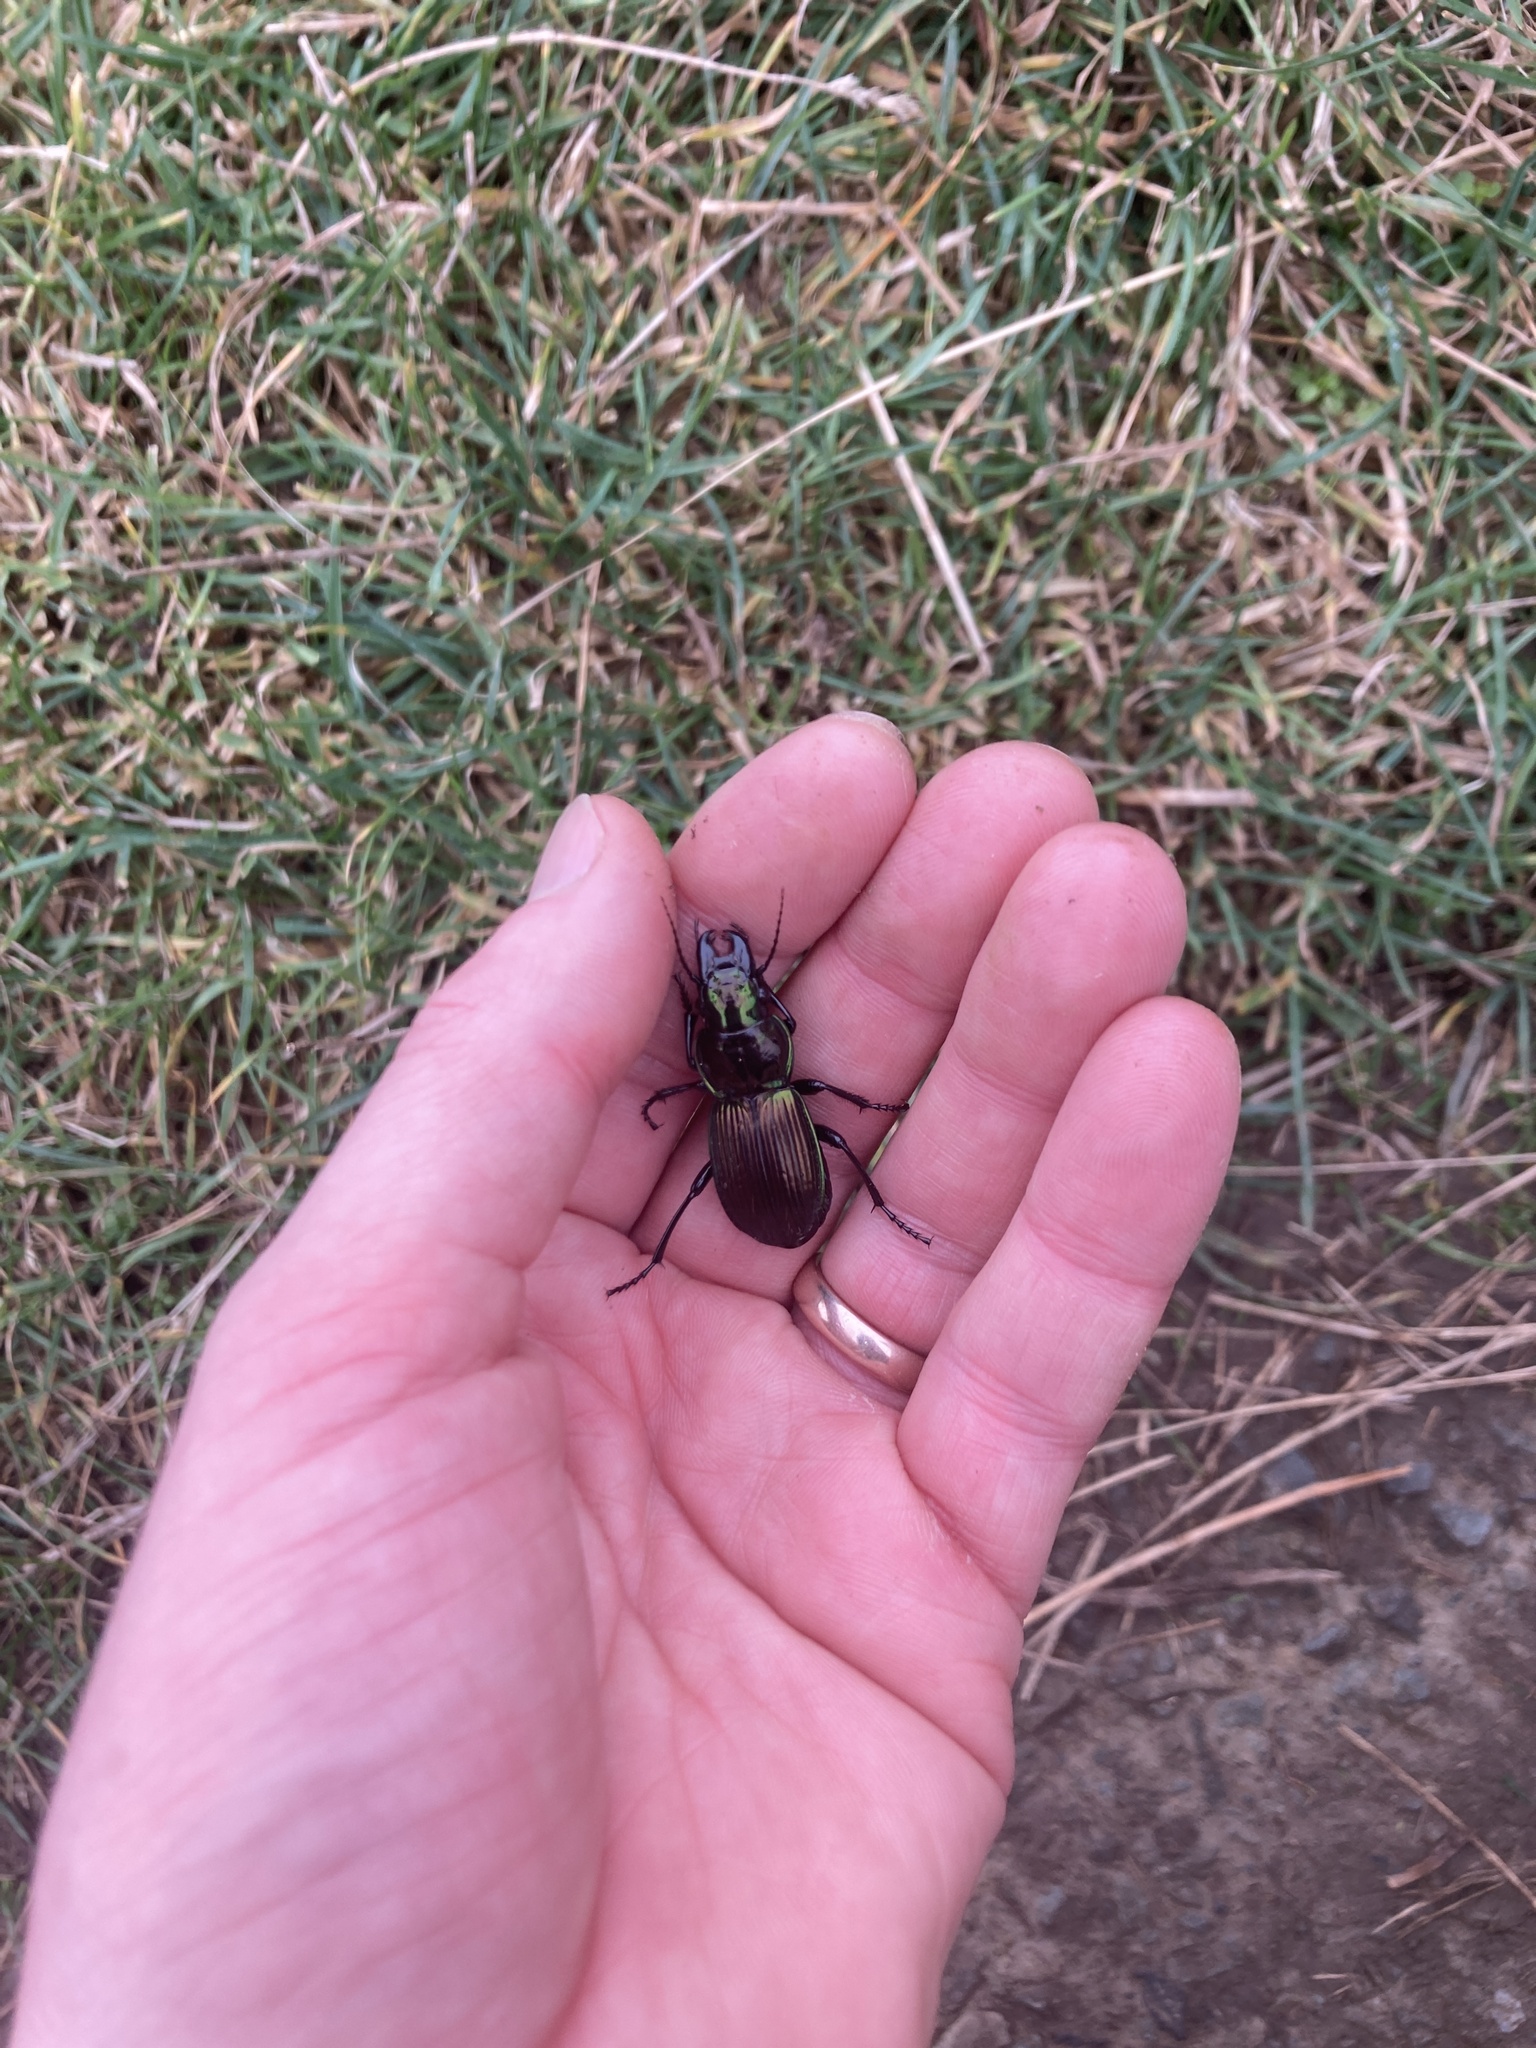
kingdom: Animalia
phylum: Arthropoda
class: Insecta
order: Coleoptera
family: Carabidae
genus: Megadromus
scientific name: Megadromus antarcticus
